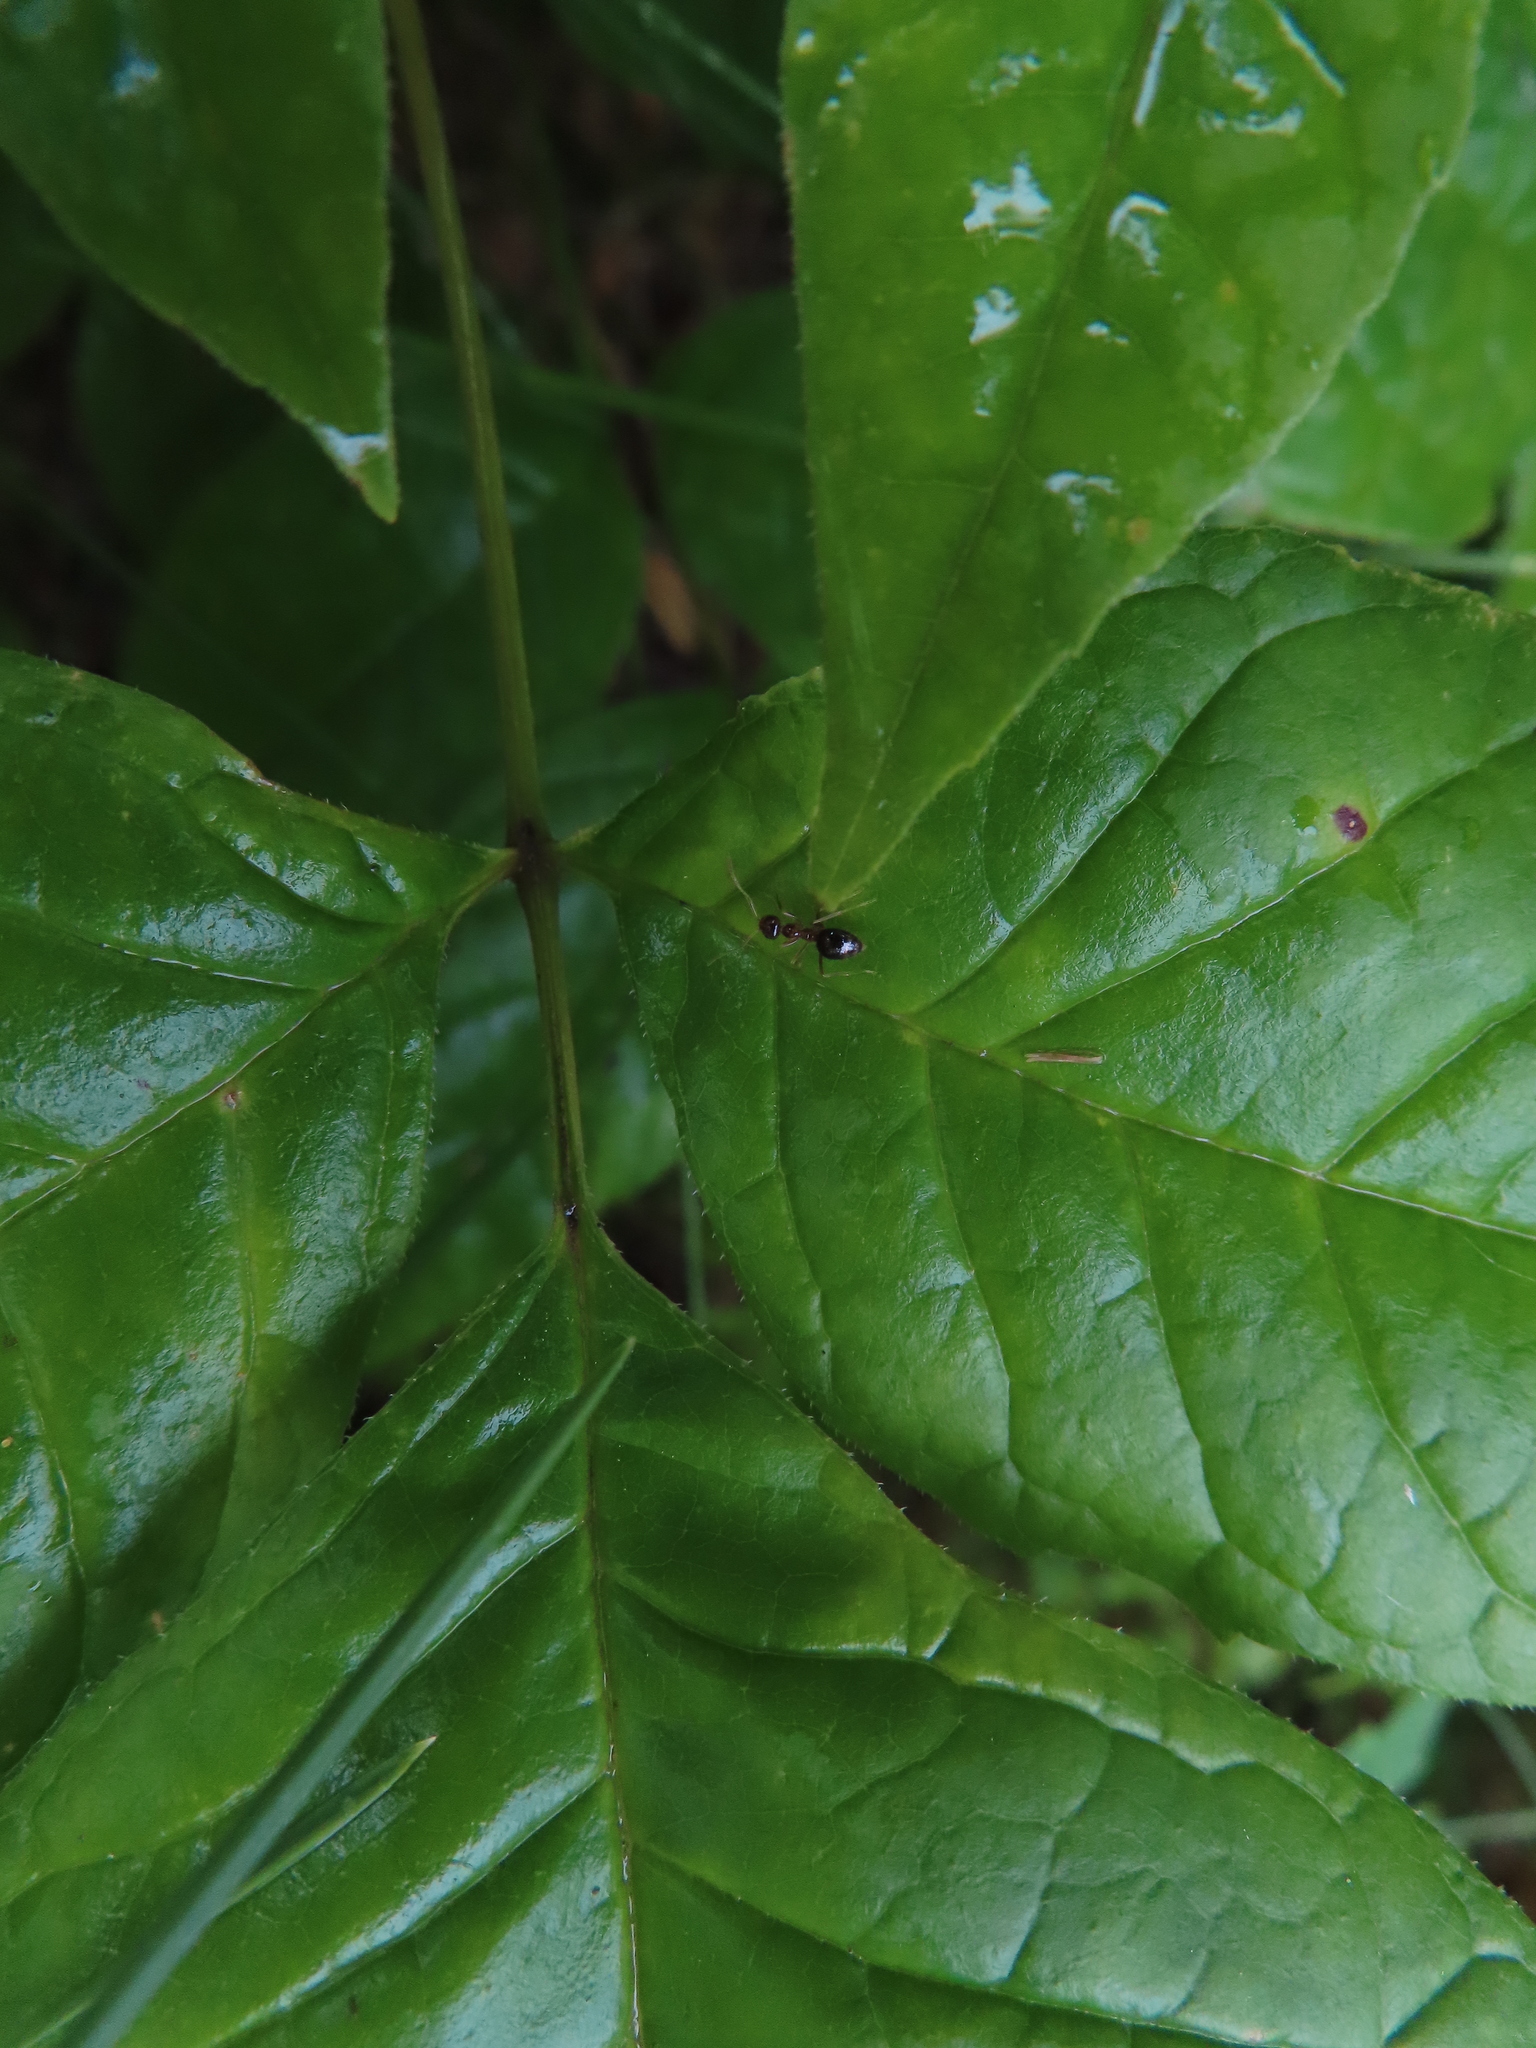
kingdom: Animalia
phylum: Arthropoda
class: Insecta
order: Hymenoptera
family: Formicidae
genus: Prenolepis
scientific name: Prenolepis imparis
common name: Small honey ant
